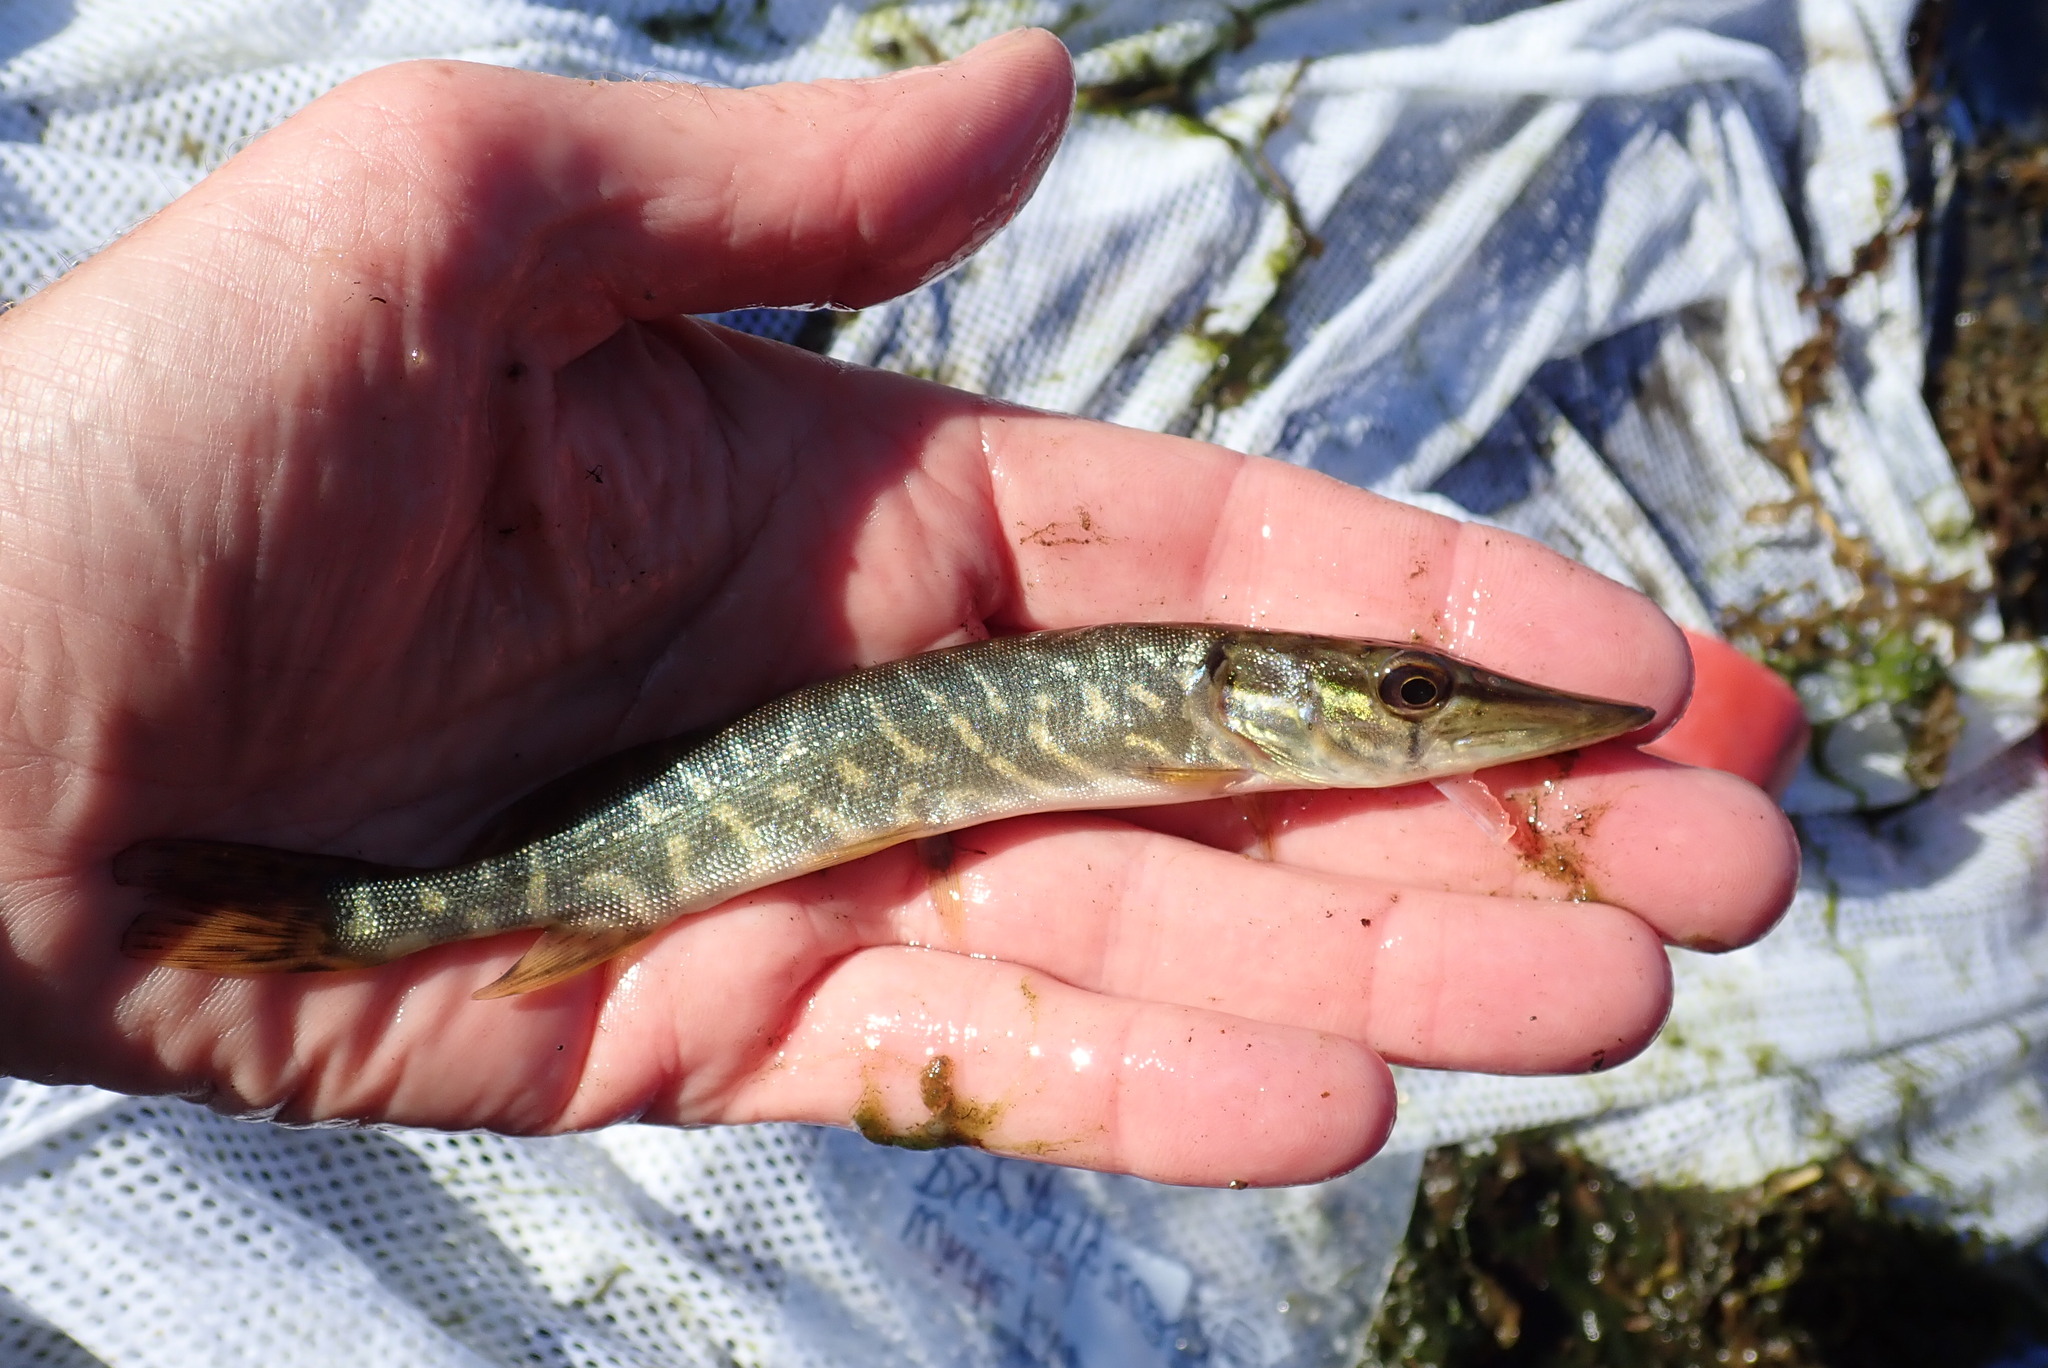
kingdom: Animalia
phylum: Chordata
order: Esociformes
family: Esocidae
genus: Esox
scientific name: Esox lucius
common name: Northern pike
